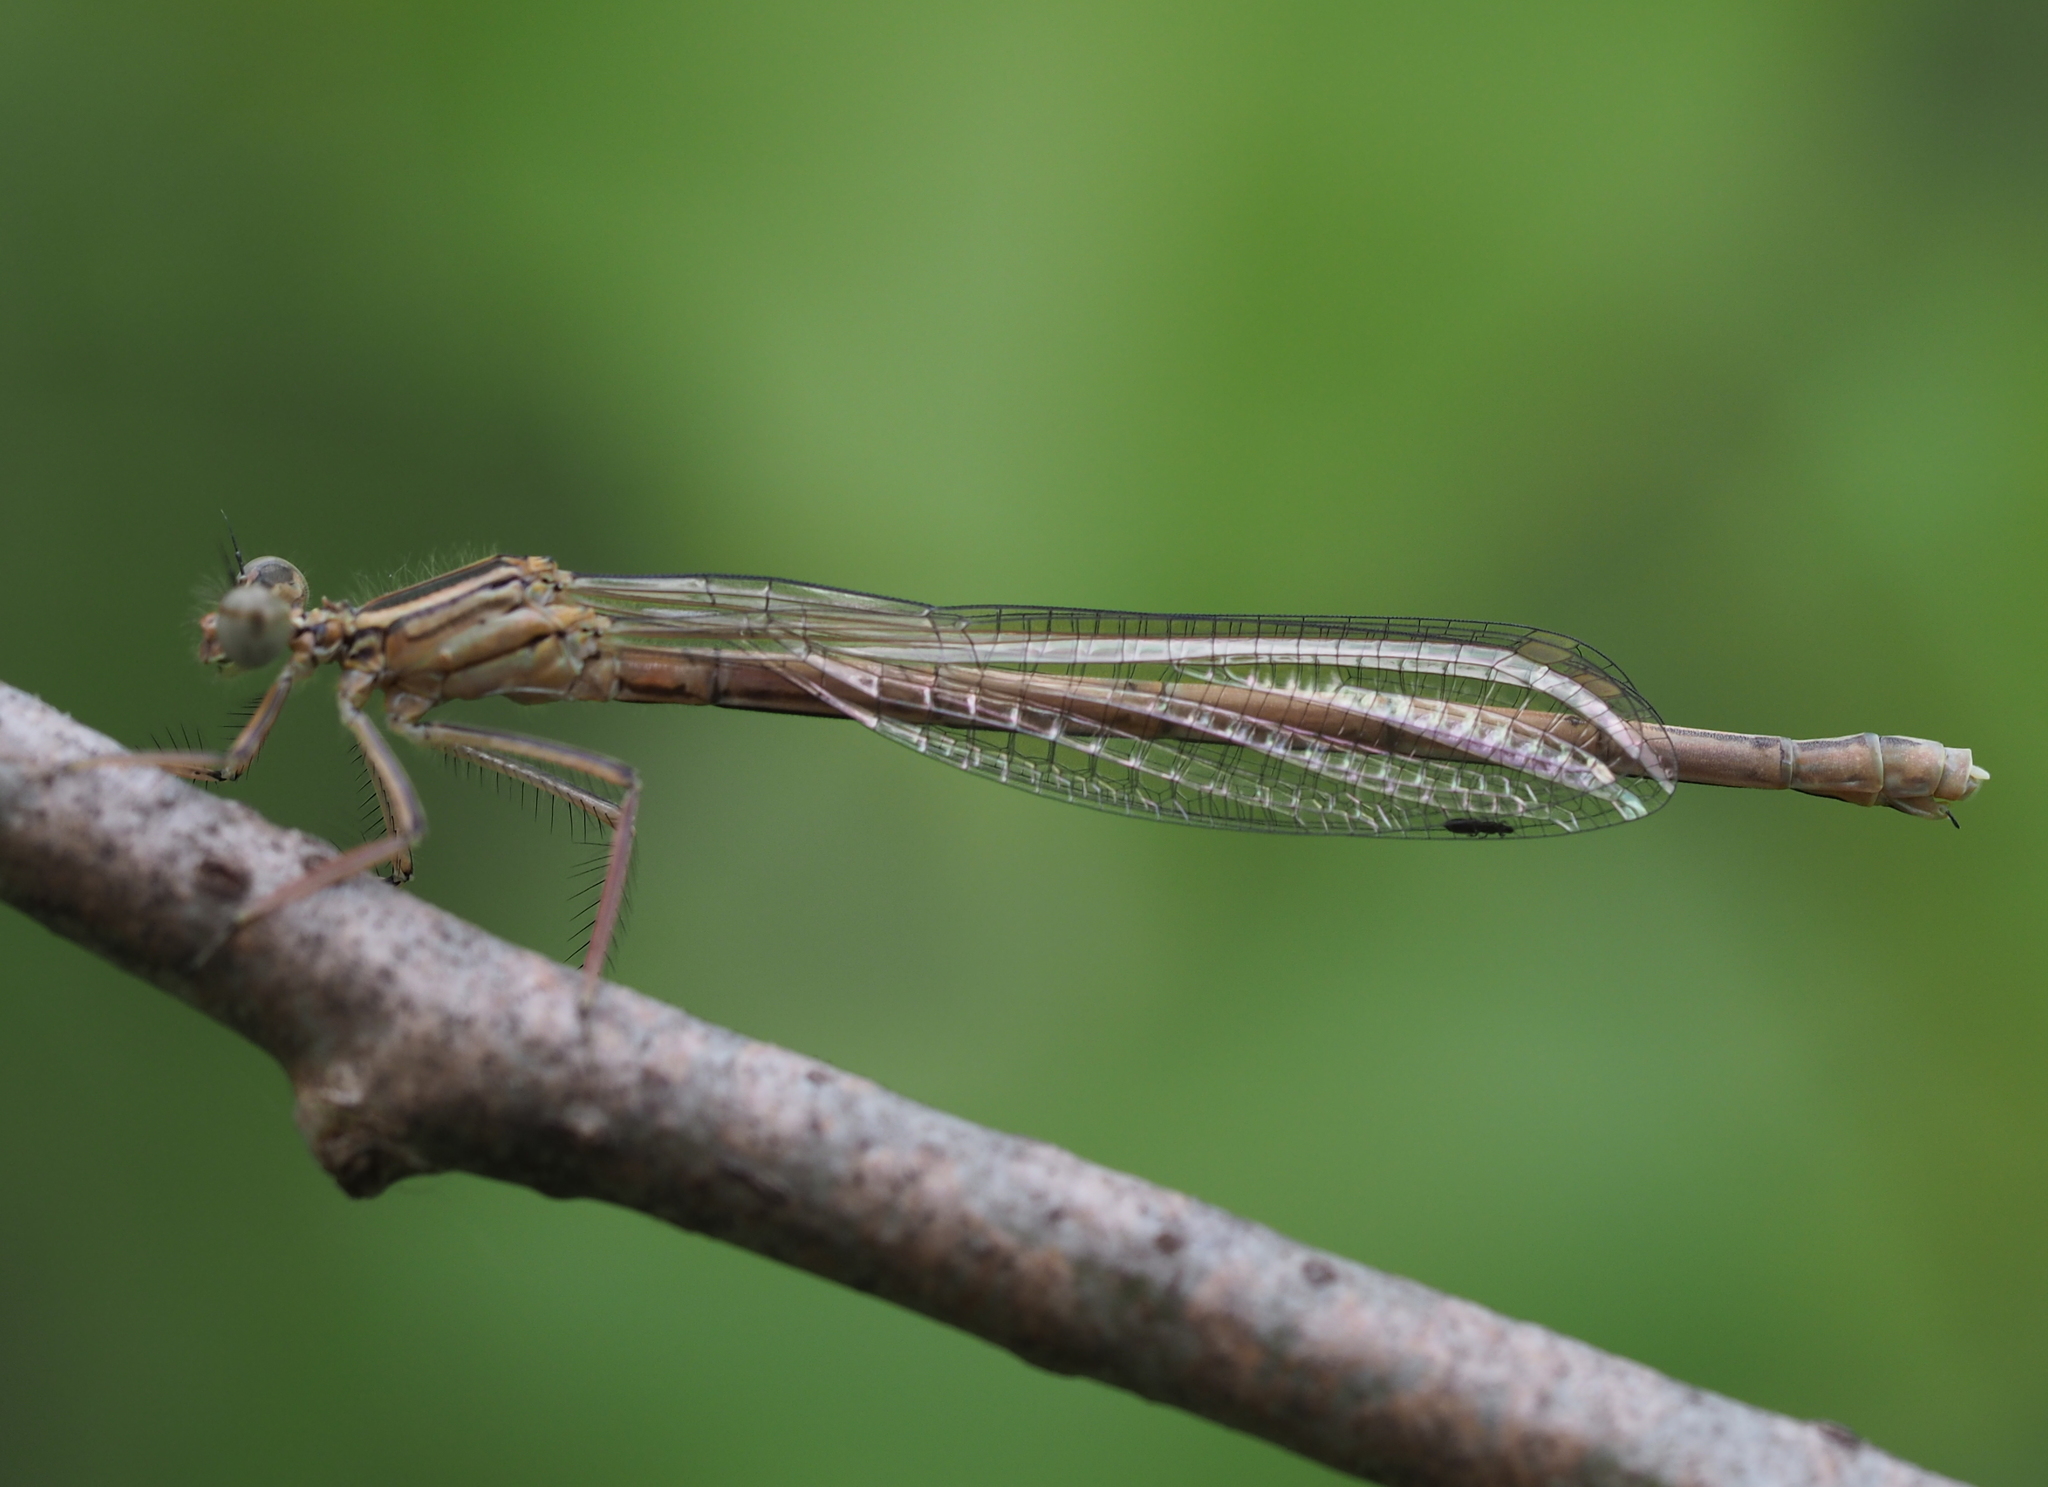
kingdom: Animalia
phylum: Arthropoda
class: Insecta
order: Odonata
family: Platycnemididae
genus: Platycnemis
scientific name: Platycnemis pennipes
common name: White-legged damselfly
